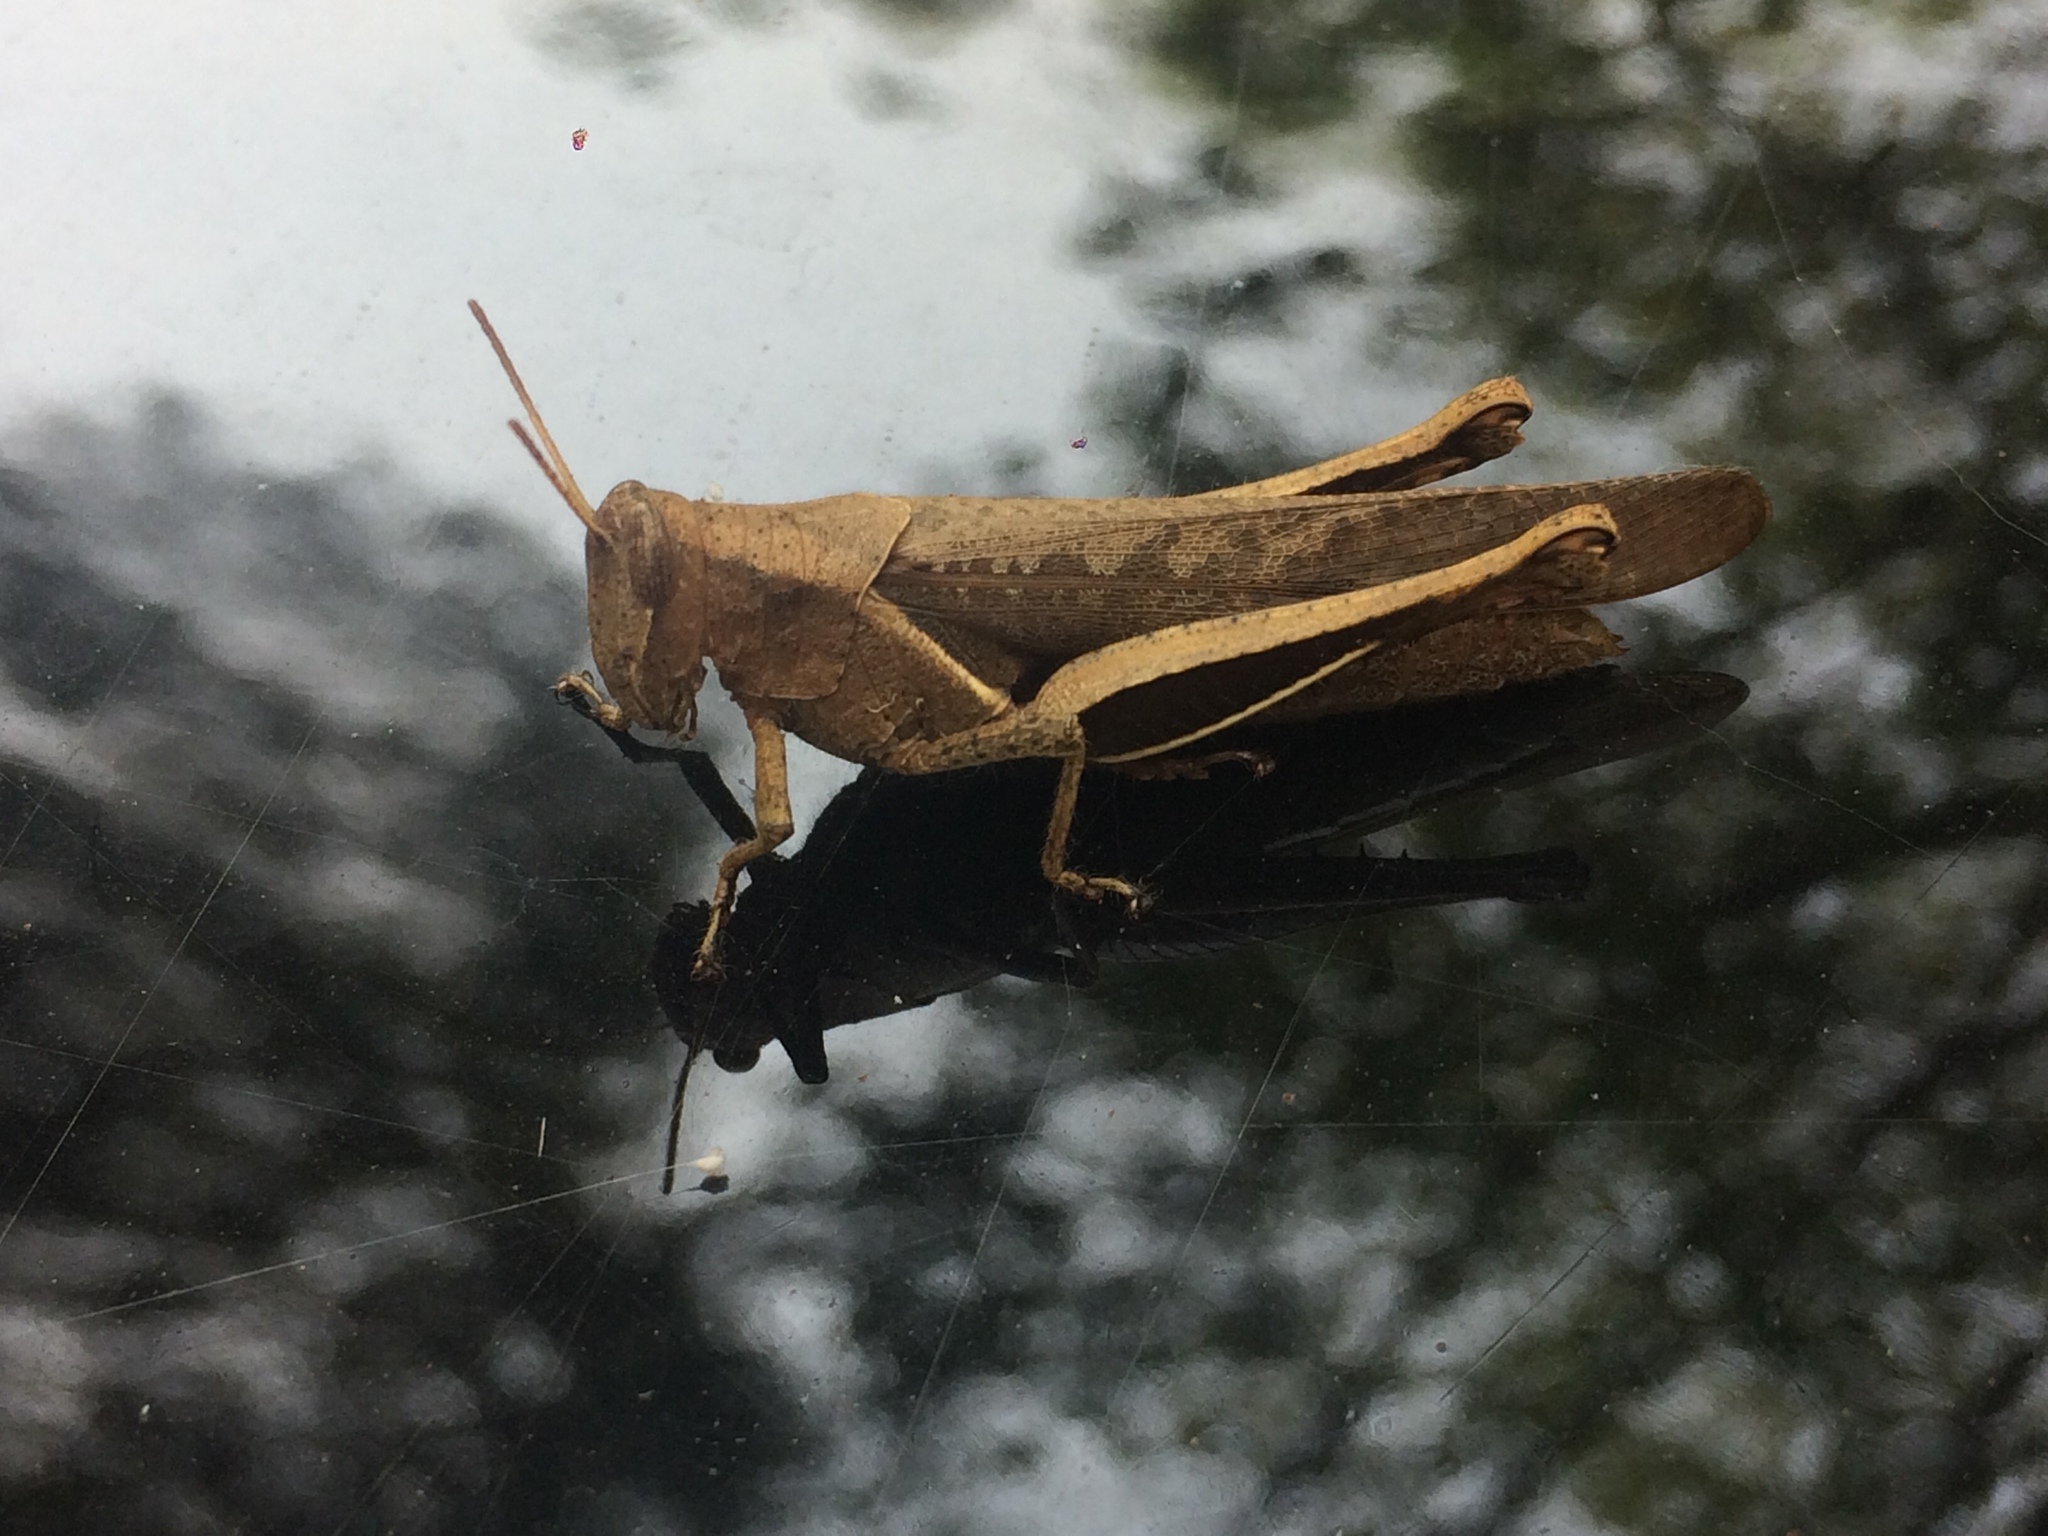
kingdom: Animalia
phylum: Arthropoda
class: Insecta
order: Orthoptera
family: Acrididae
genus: Abracris
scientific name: Abracris flavolineata
